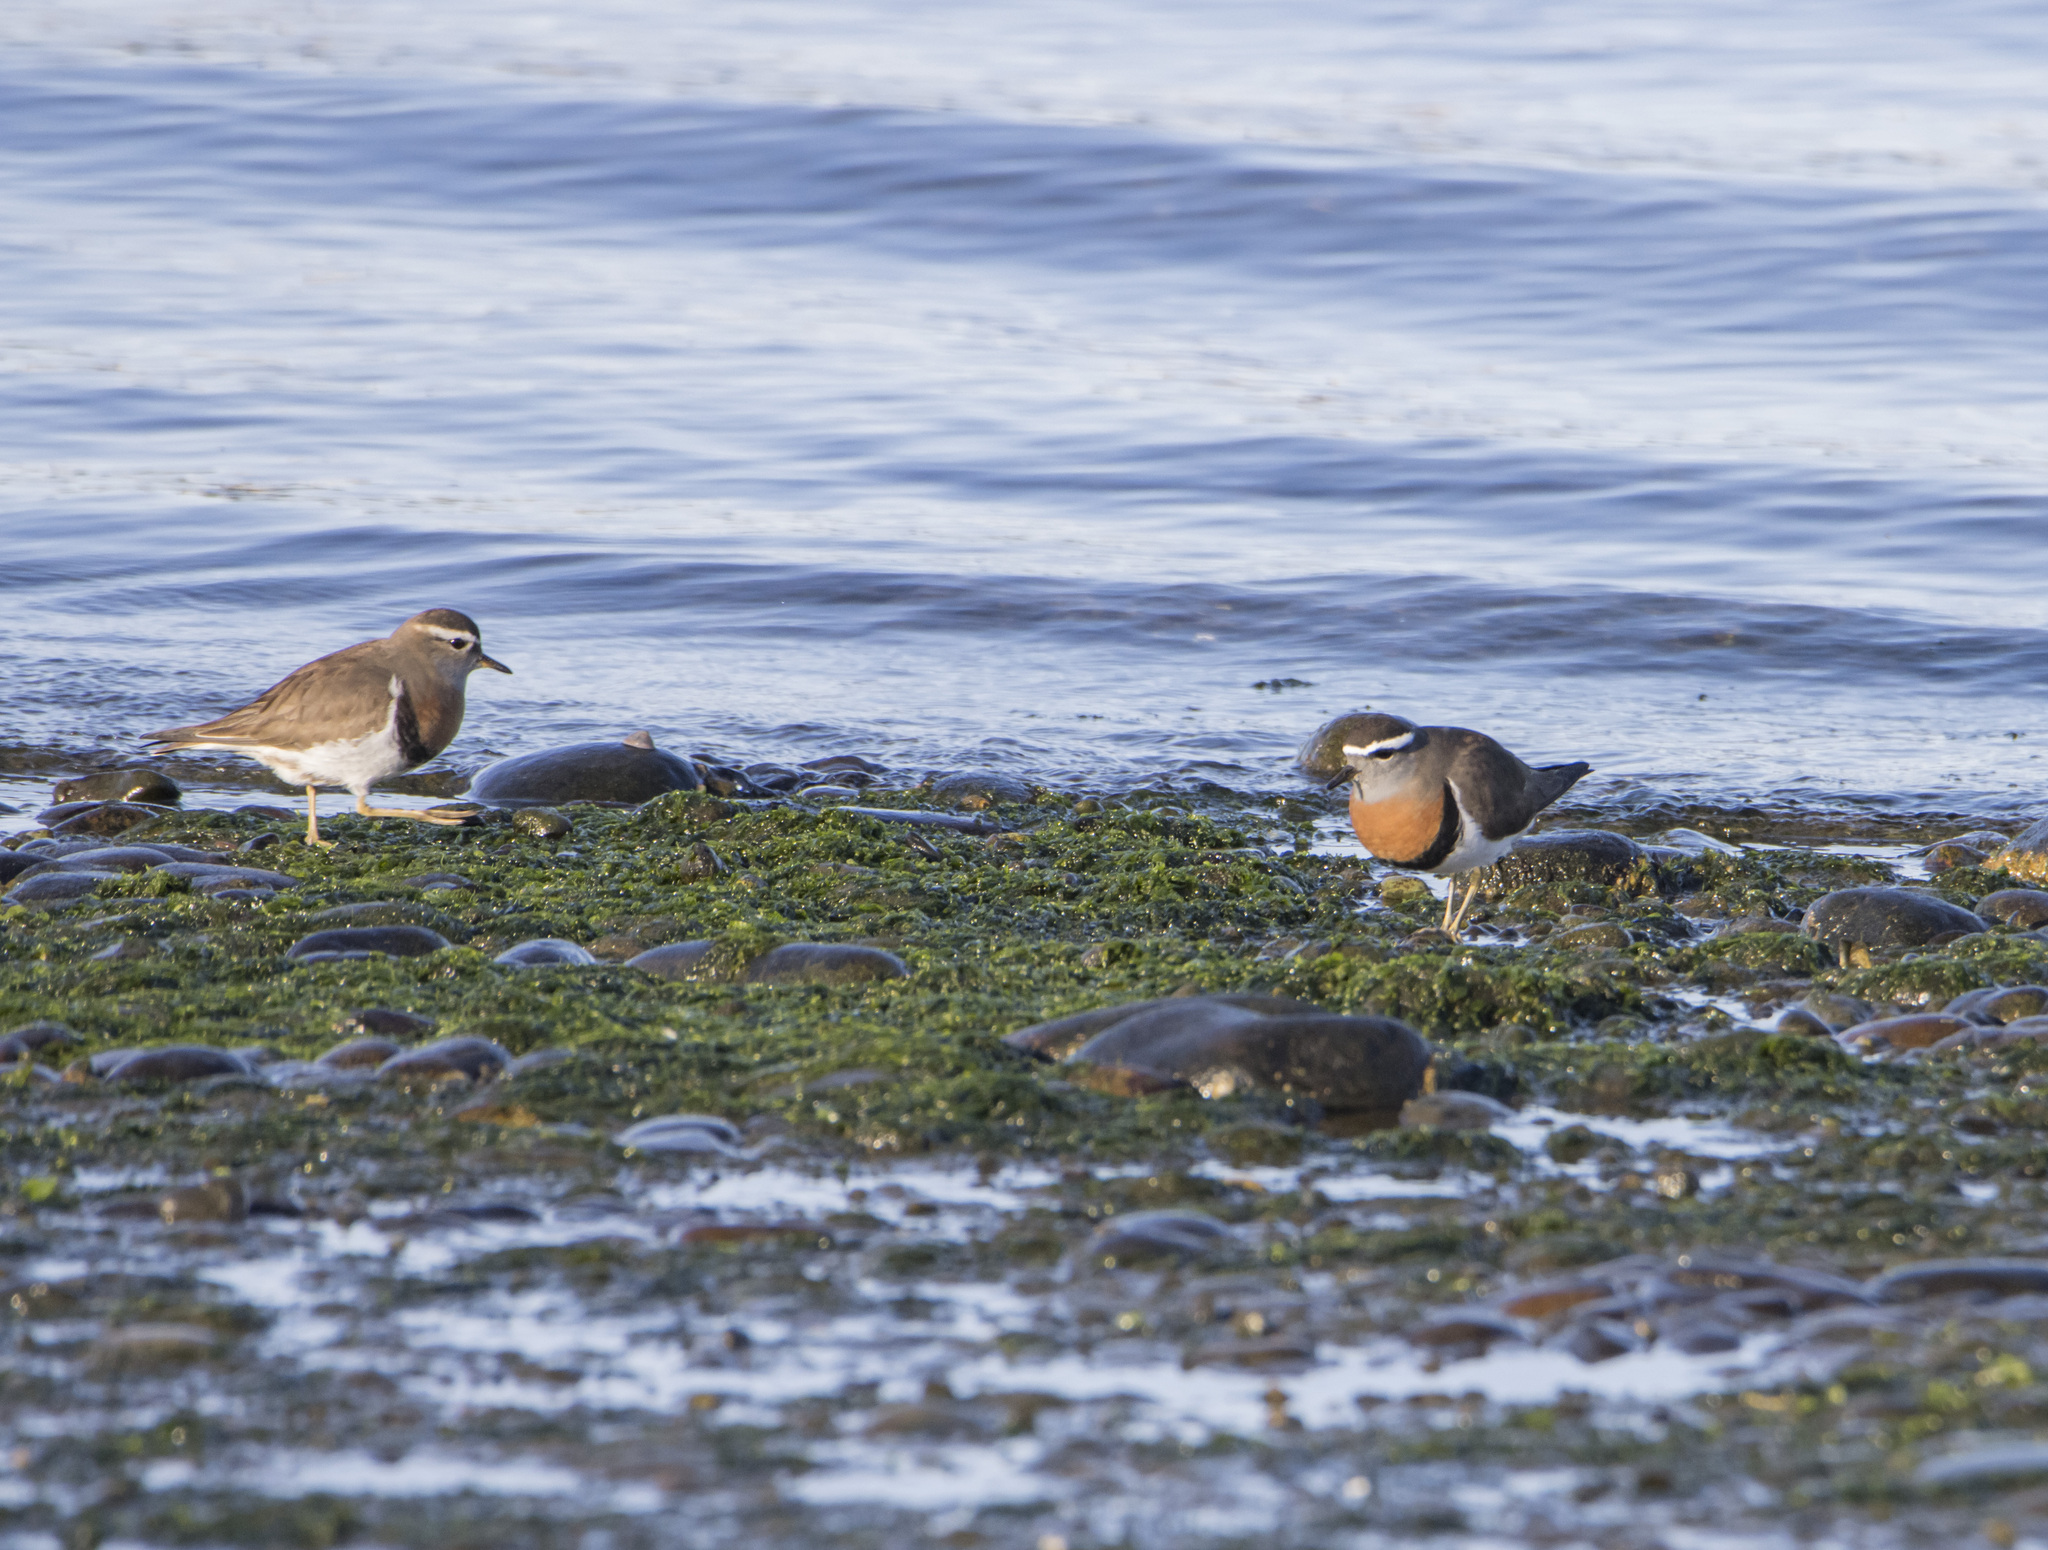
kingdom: Animalia
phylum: Chordata
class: Aves
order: Charadriiformes
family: Charadriidae
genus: Charadrius
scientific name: Charadrius modestus
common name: Rufous-chested plover
